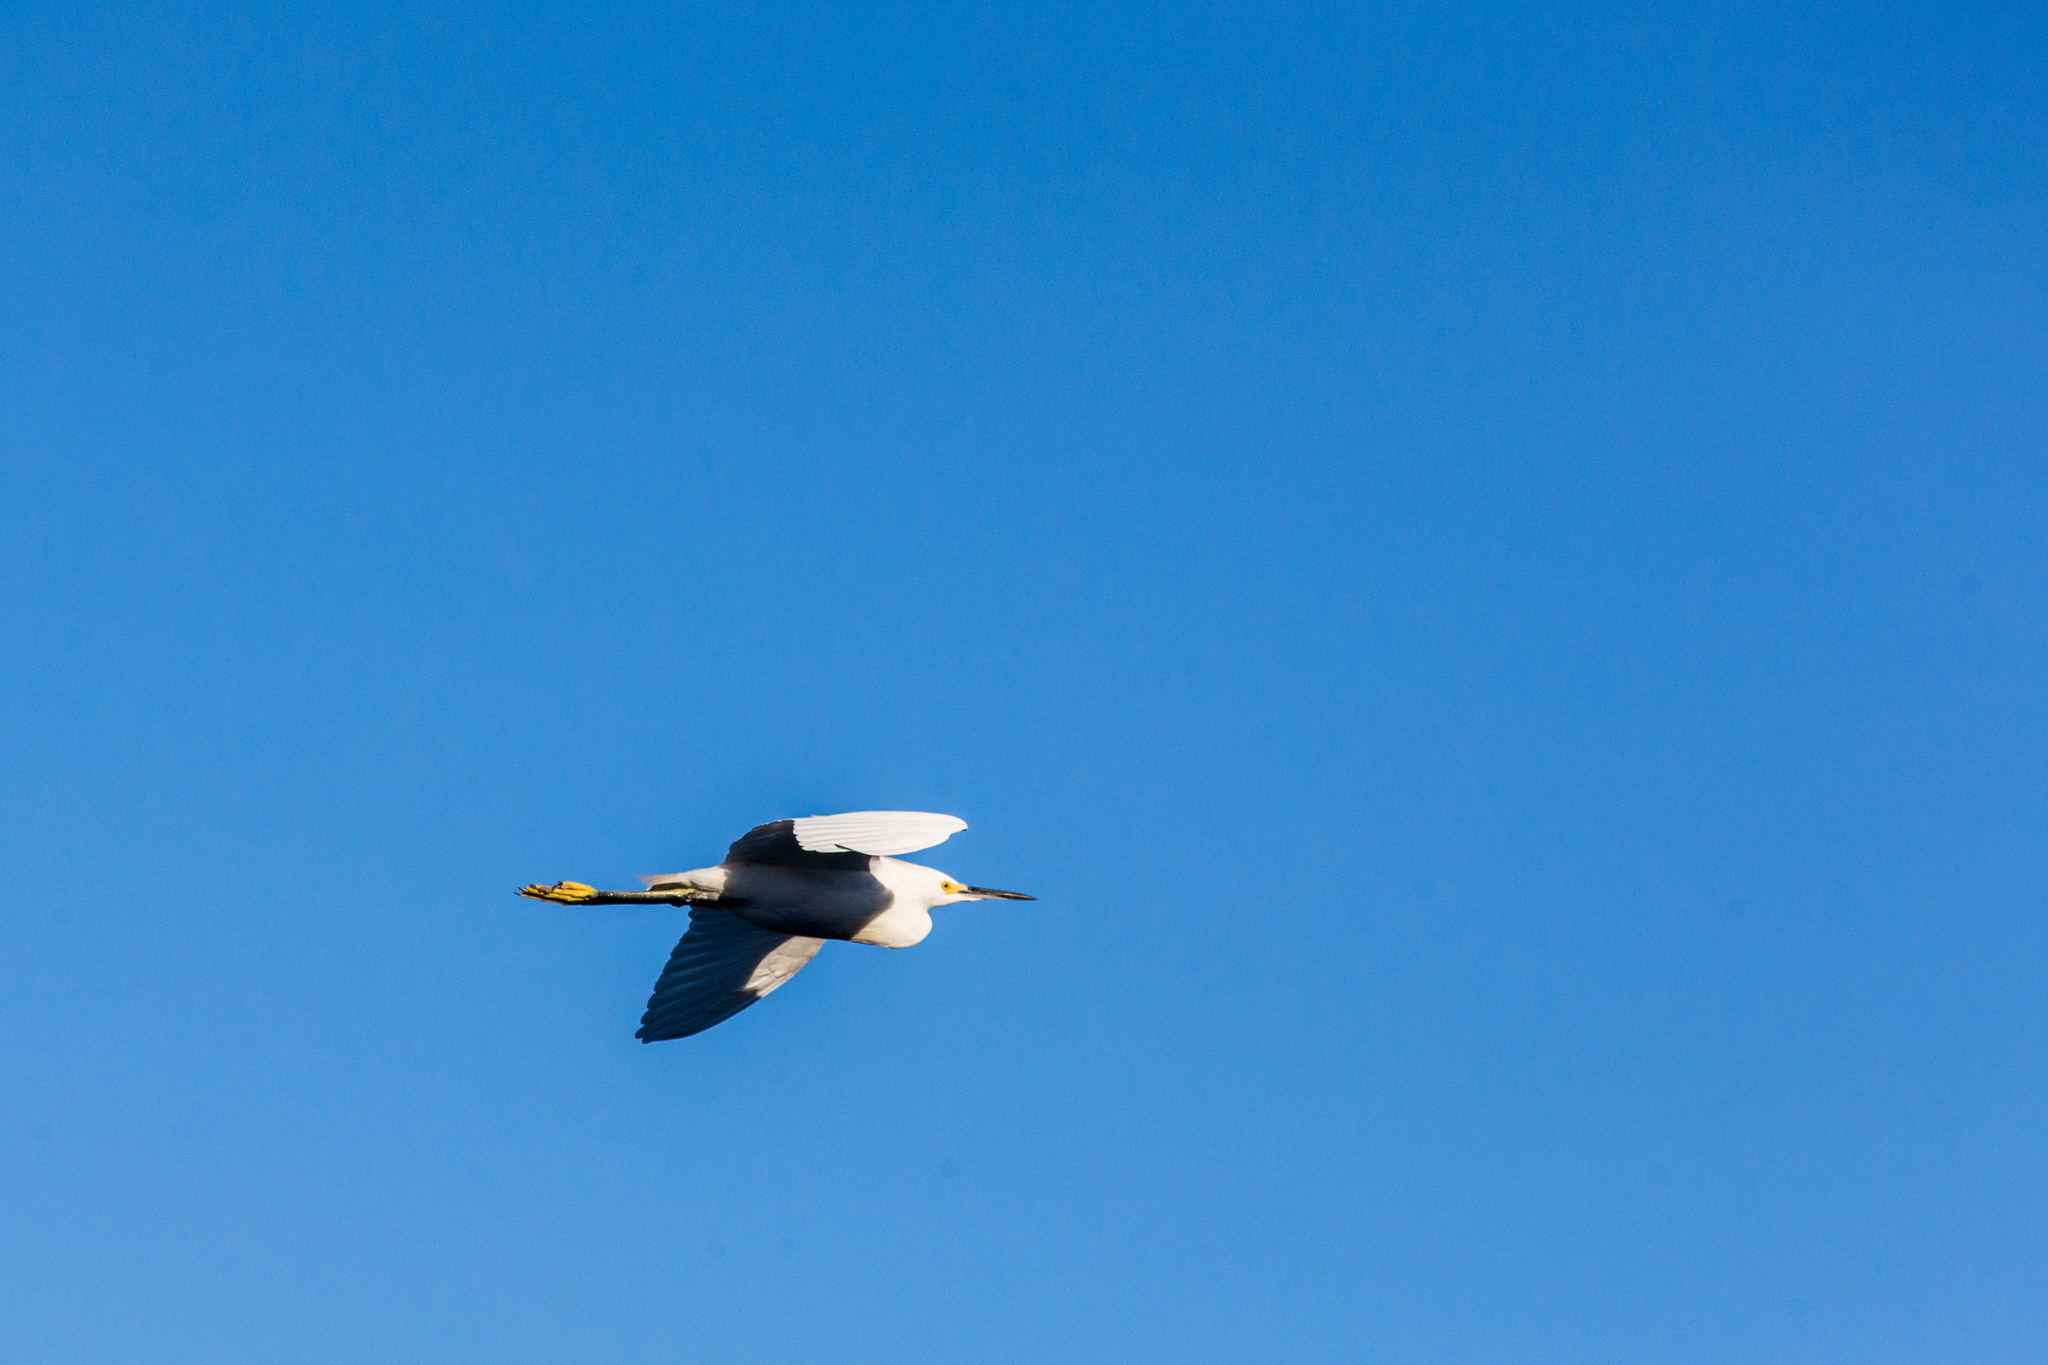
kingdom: Animalia
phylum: Chordata
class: Aves
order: Pelecaniformes
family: Ardeidae
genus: Egretta
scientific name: Egretta thula
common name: Snowy egret
